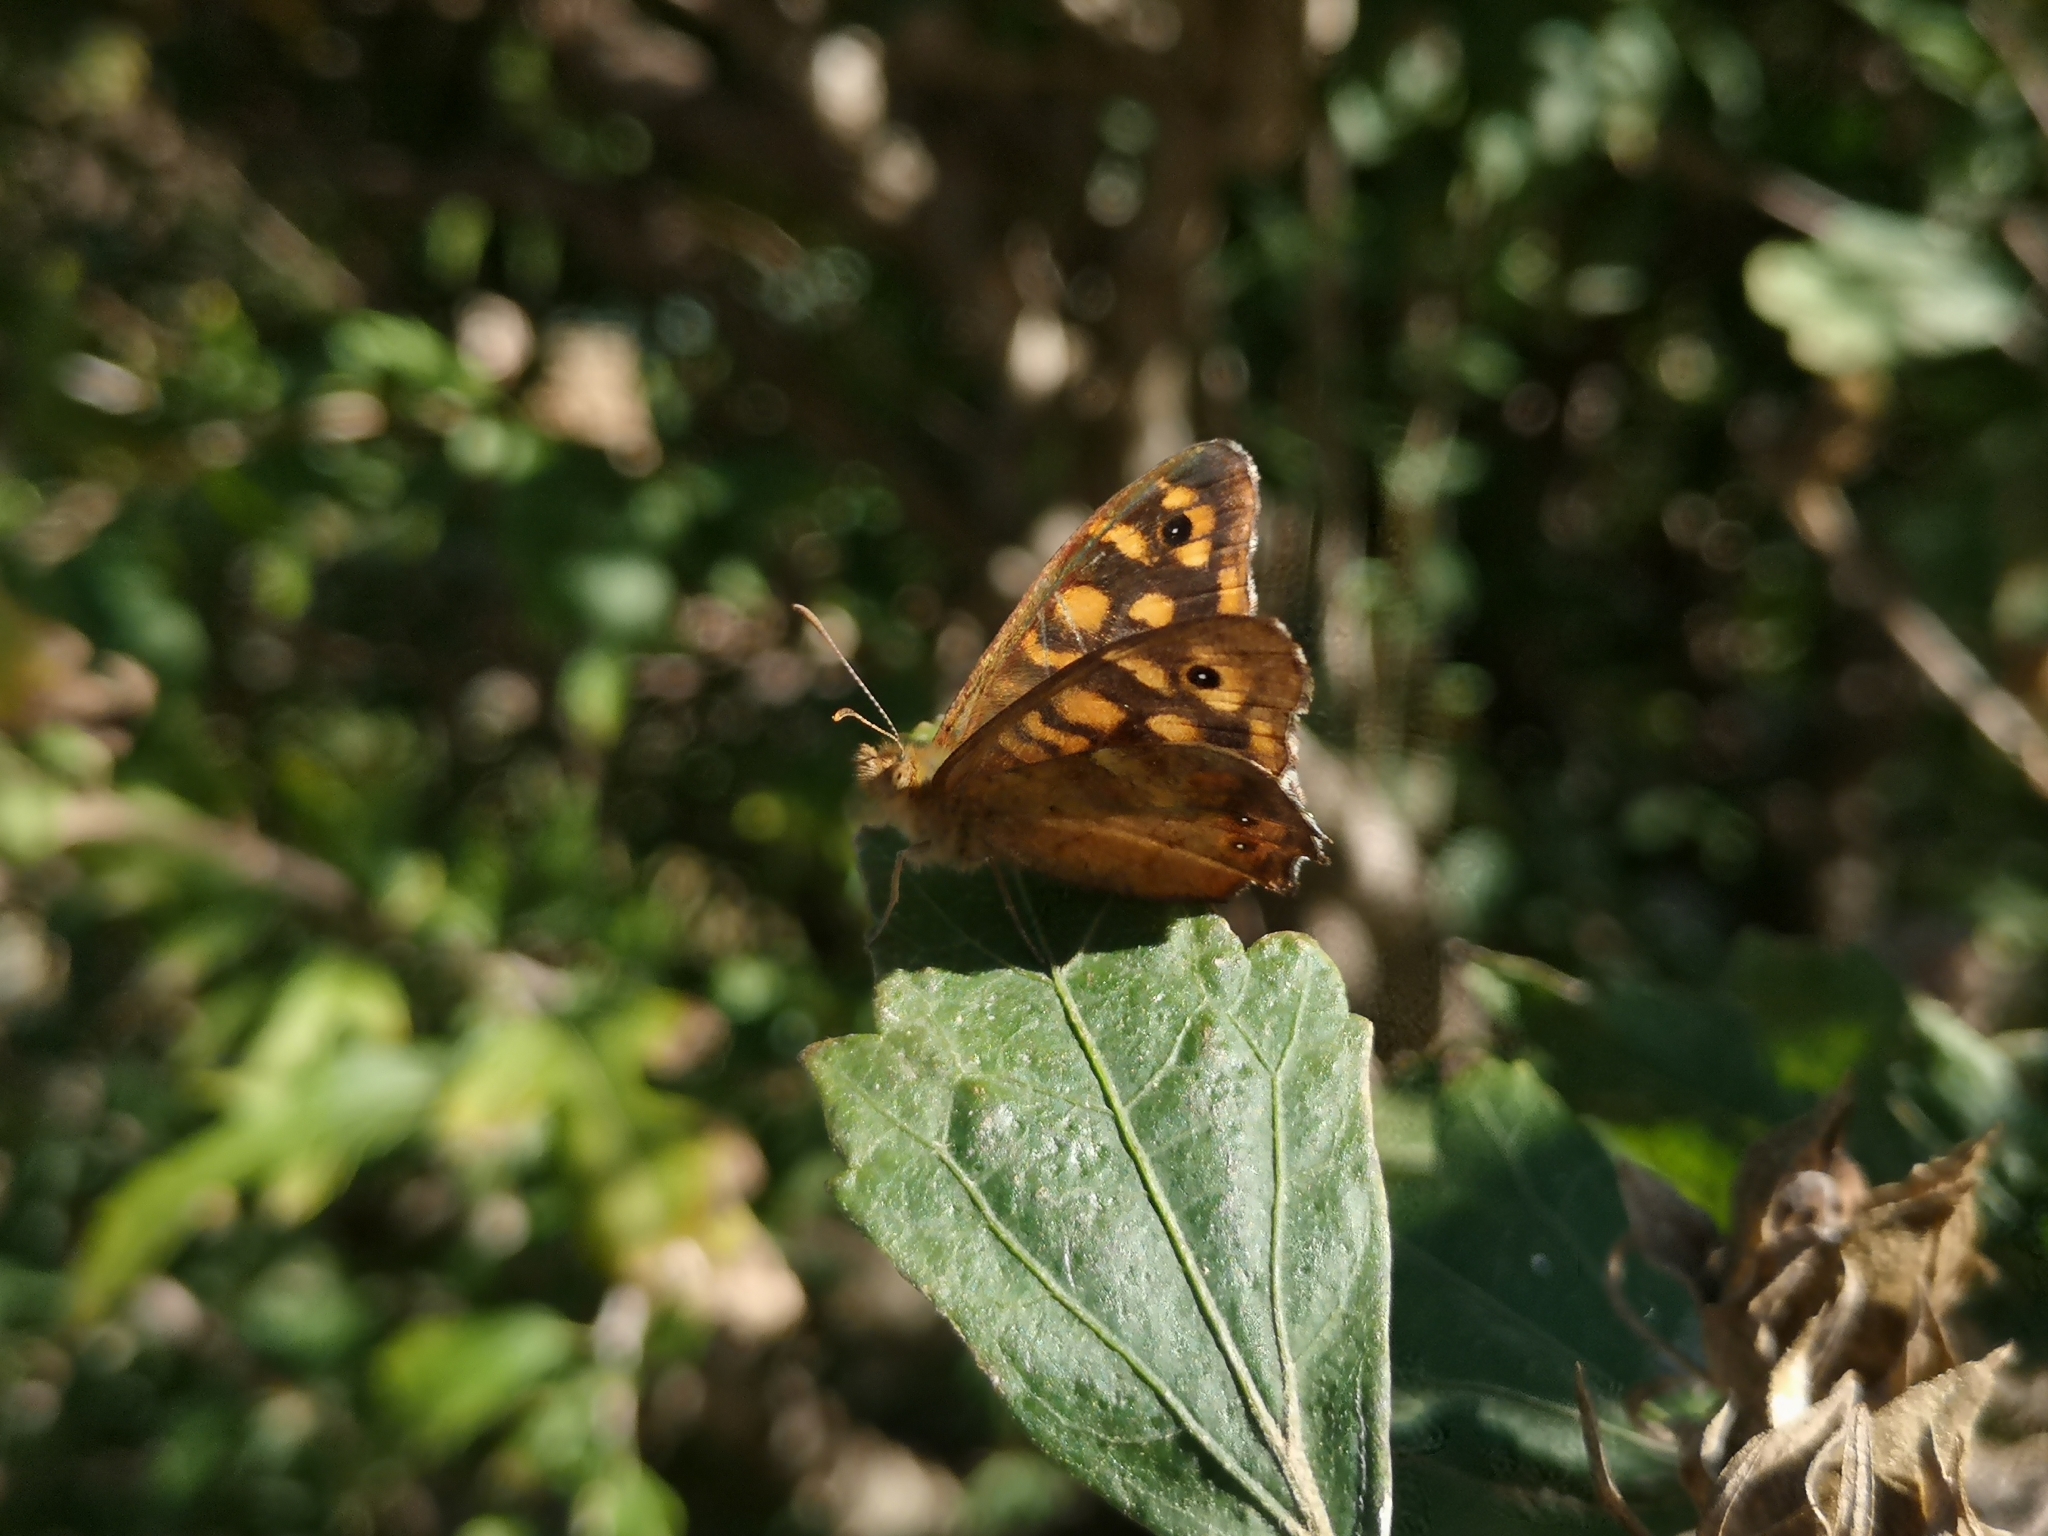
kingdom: Animalia
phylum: Arthropoda
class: Insecta
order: Lepidoptera
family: Nymphalidae
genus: Pararge
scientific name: Pararge aegeria
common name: Speckled wood
